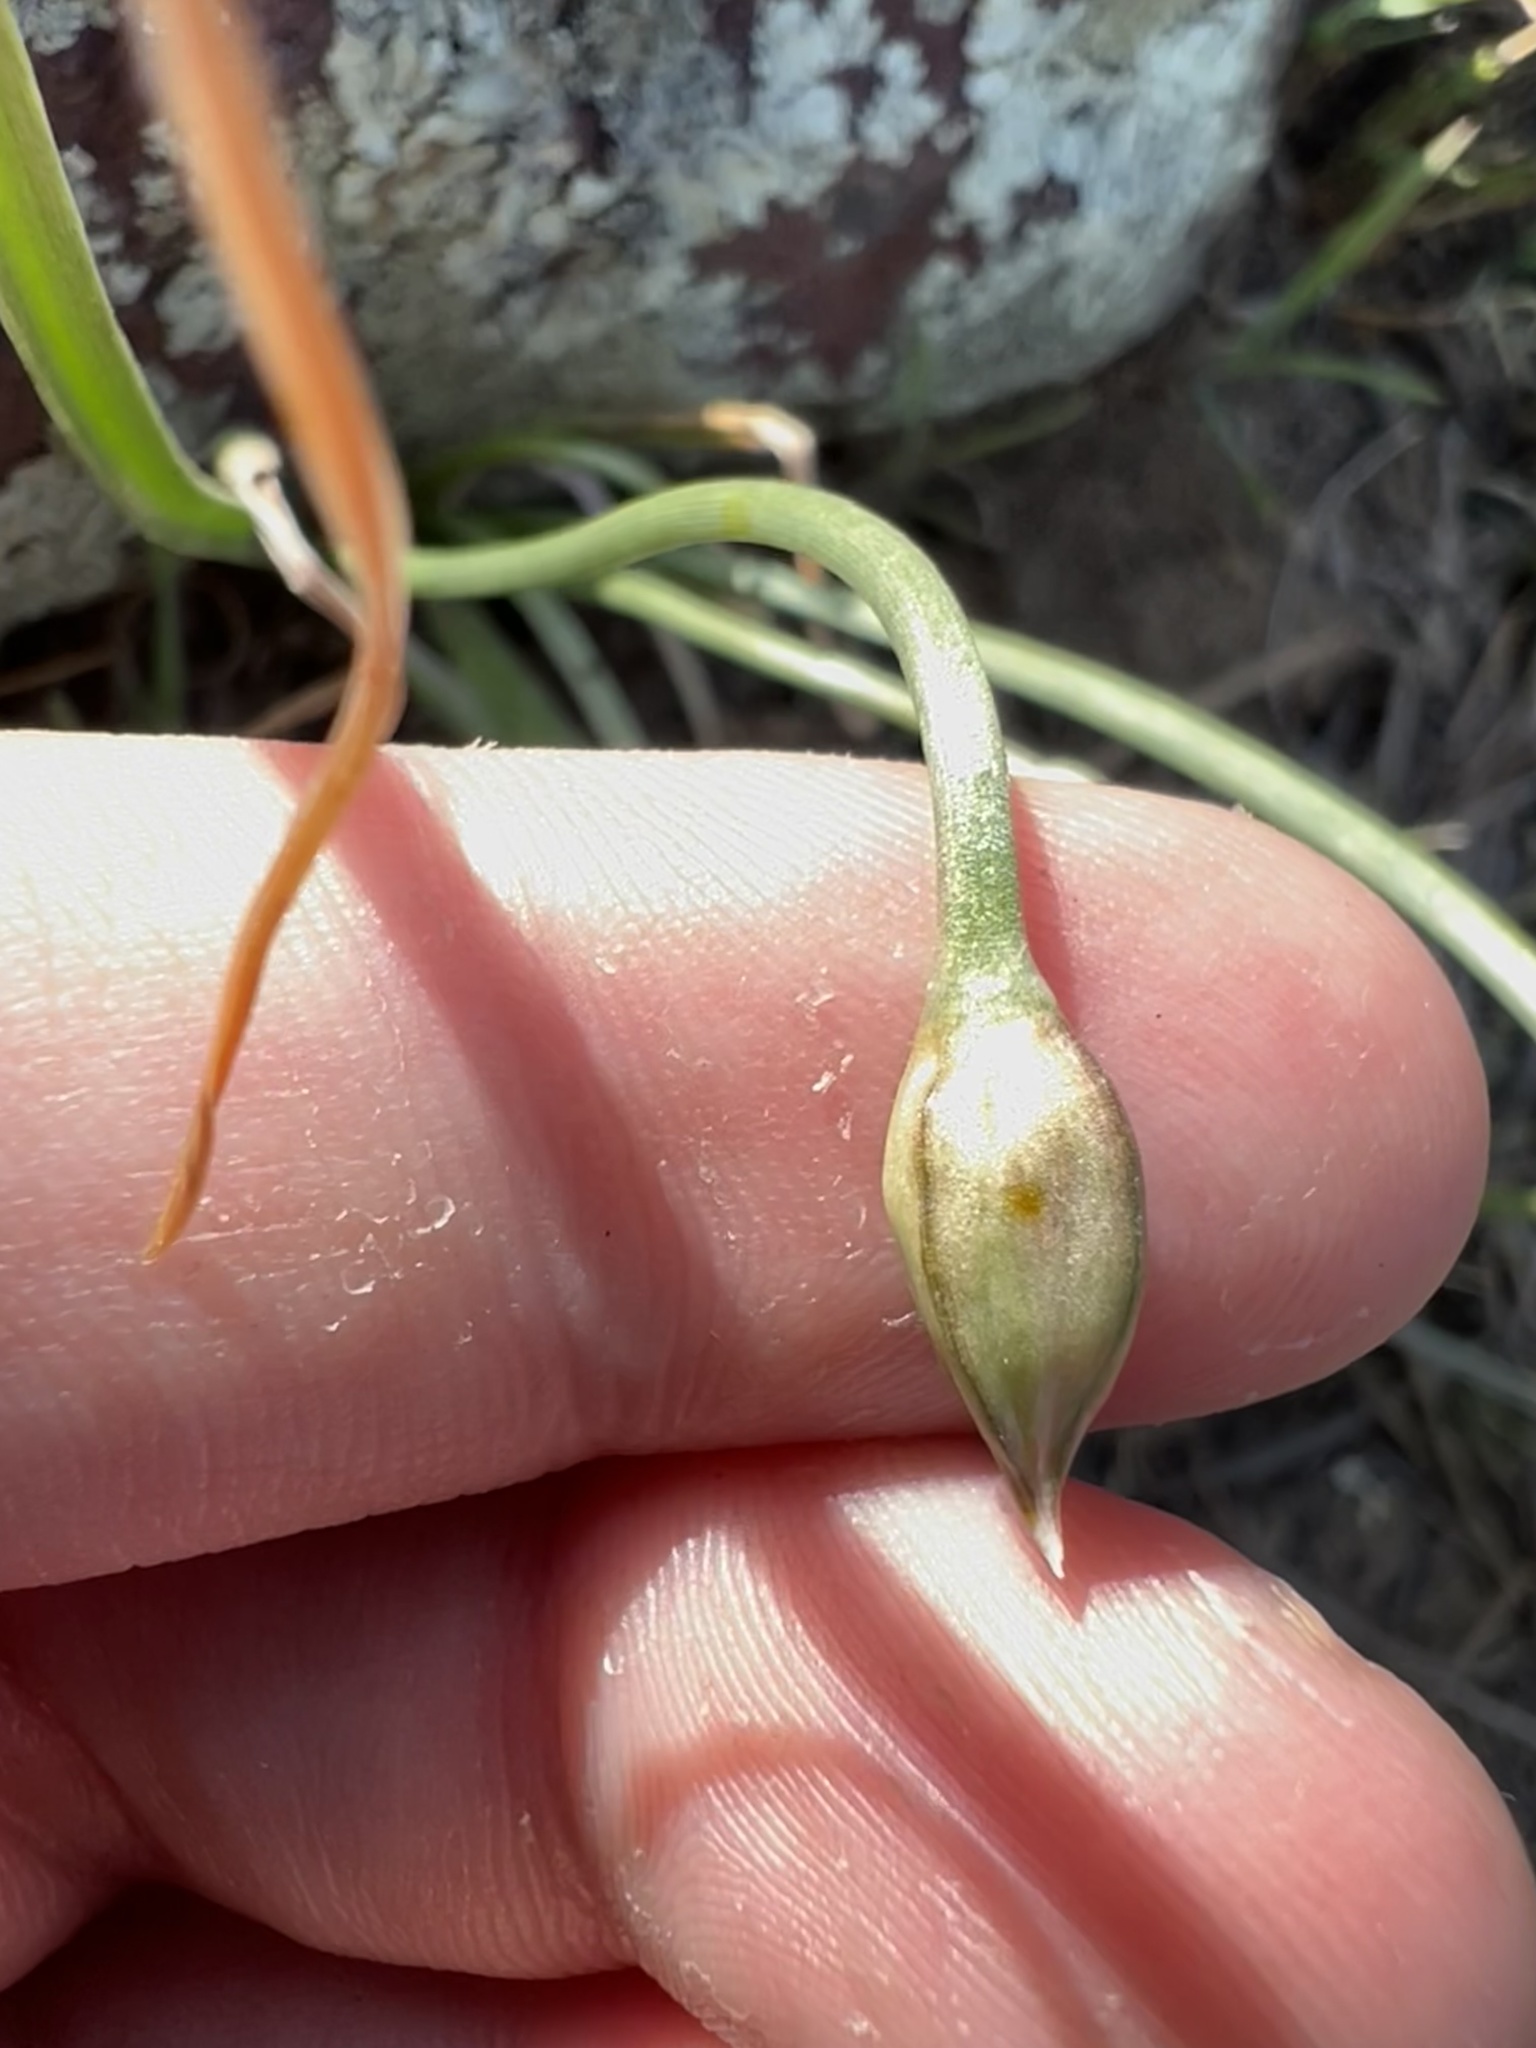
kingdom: Plantae
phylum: Tracheophyta
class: Liliopsida
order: Asparagales
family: Amaryllidaceae
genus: Allium
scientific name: Allium textile
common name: Prairie onion
